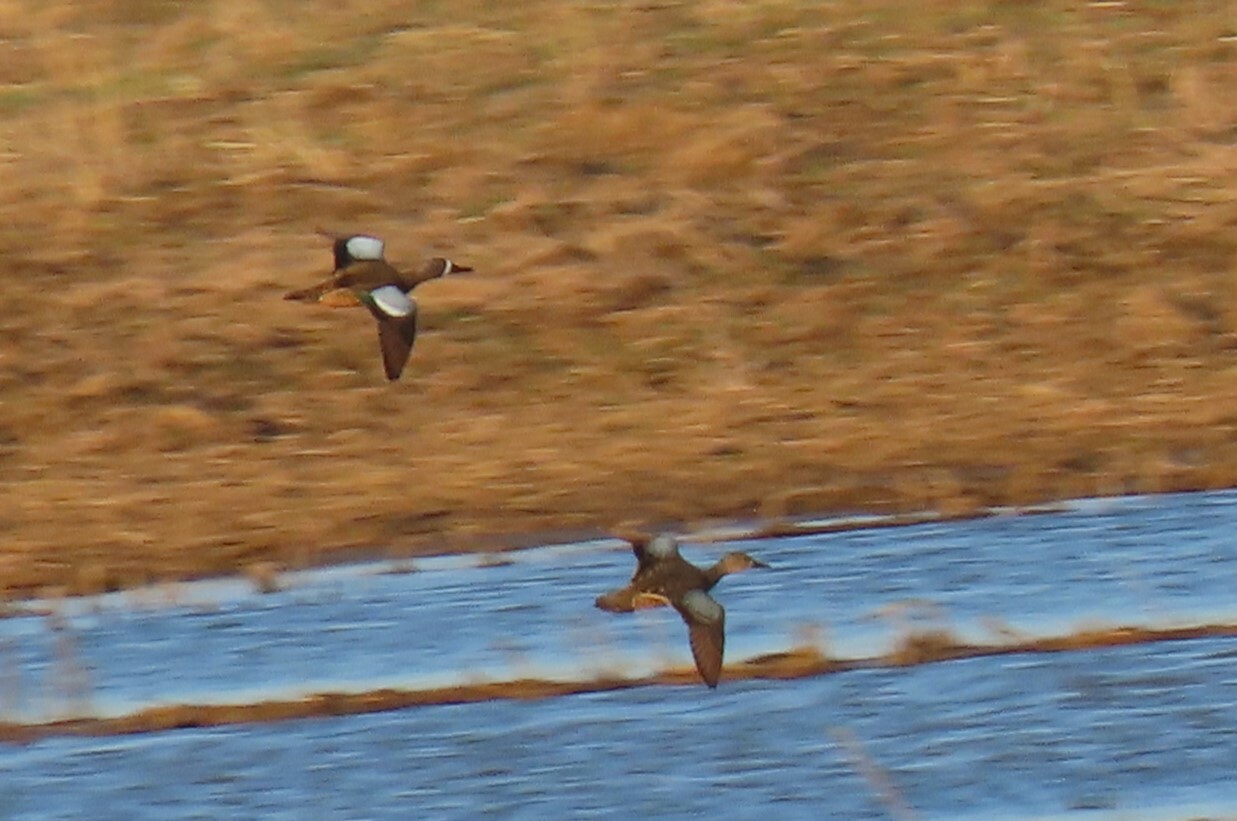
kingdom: Animalia
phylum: Chordata
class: Aves
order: Anseriformes
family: Anatidae
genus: Spatula
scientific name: Spatula discors
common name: Blue-winged teal
